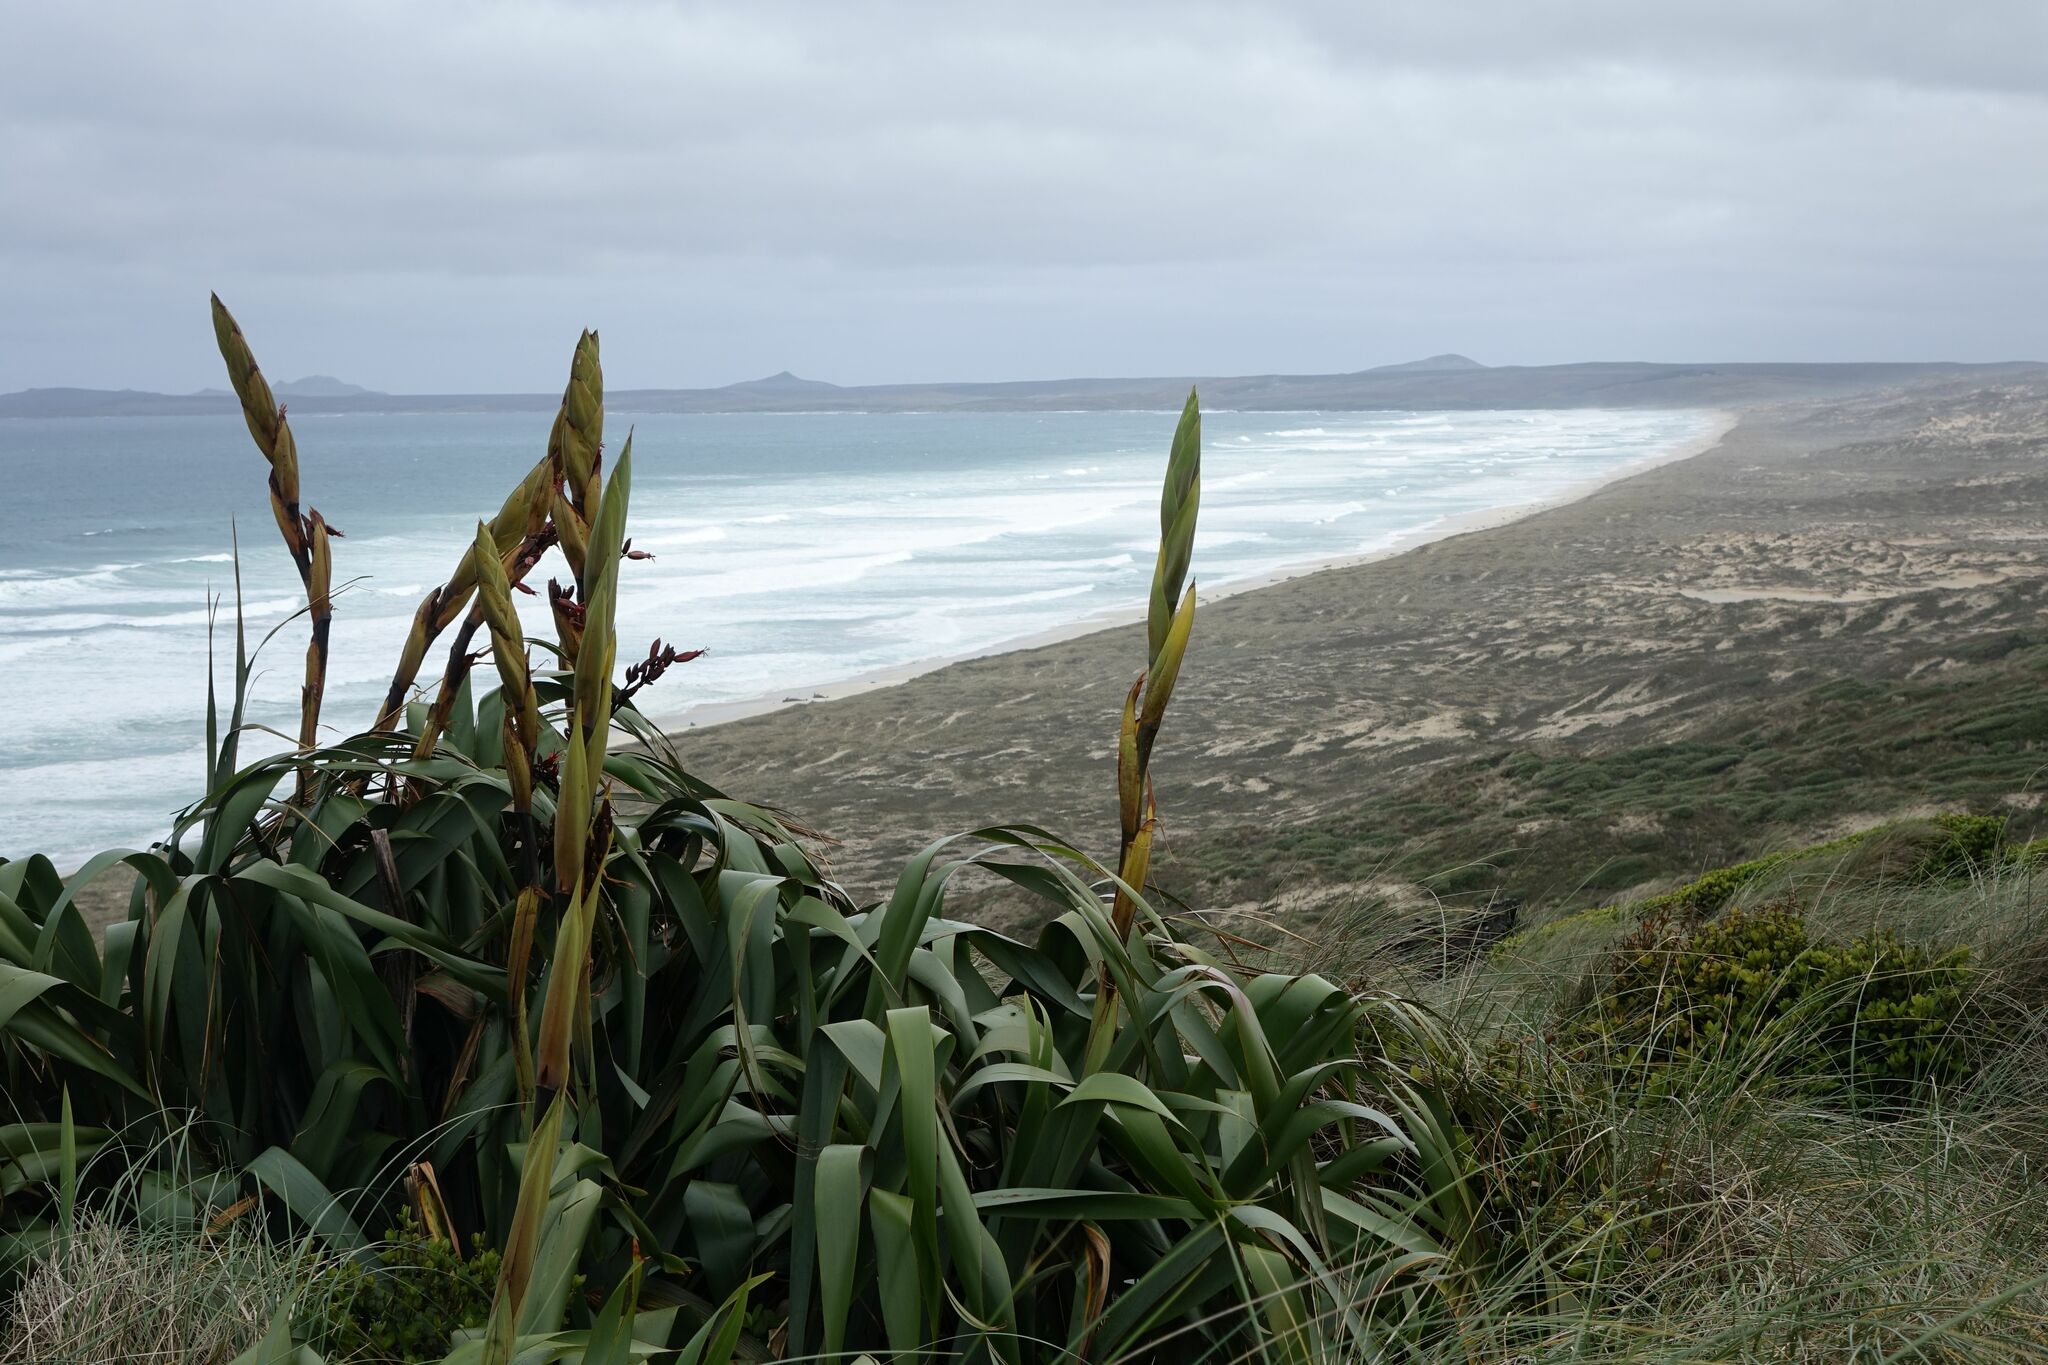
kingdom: Plantae
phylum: Tracheophyta
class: Liliopsida
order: Asparagales
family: Asphodelaceae
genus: Phormium
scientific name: Phormium tenax
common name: New zealand flax
